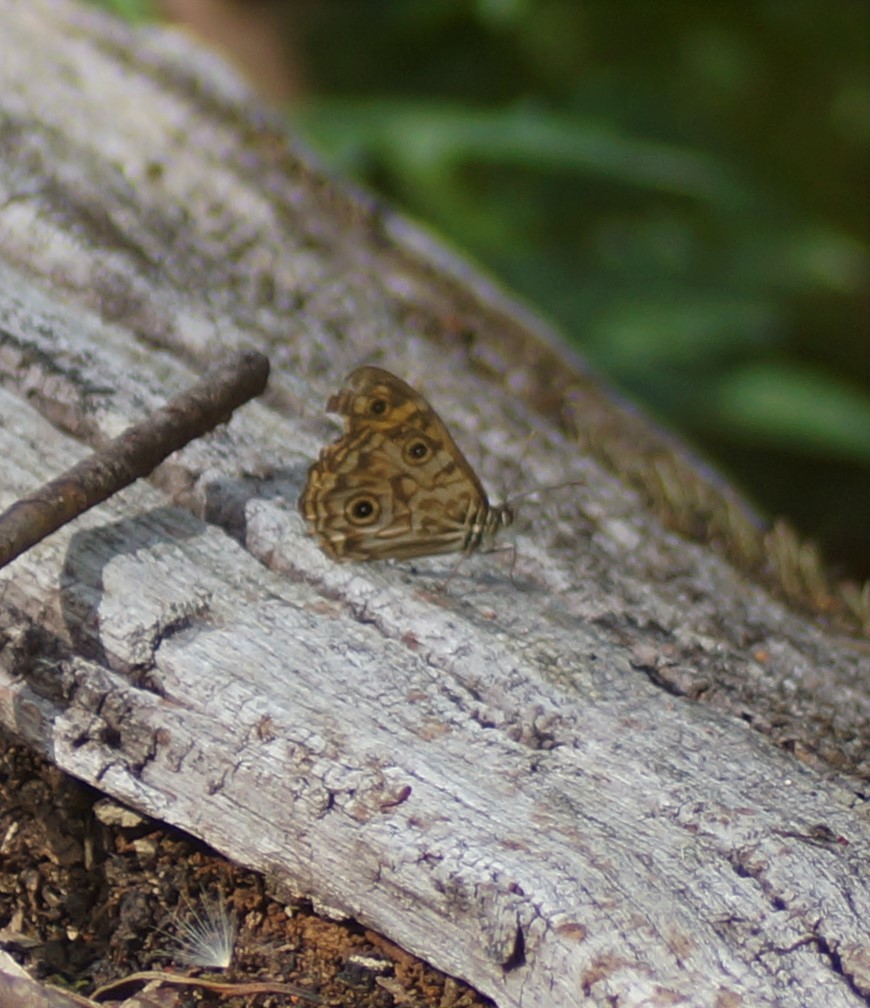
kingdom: Animalia
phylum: Arthropoda
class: Insecta
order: Lepidoptera
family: Nymphalidae
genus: Geitoneura
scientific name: Geitoneura acantha
